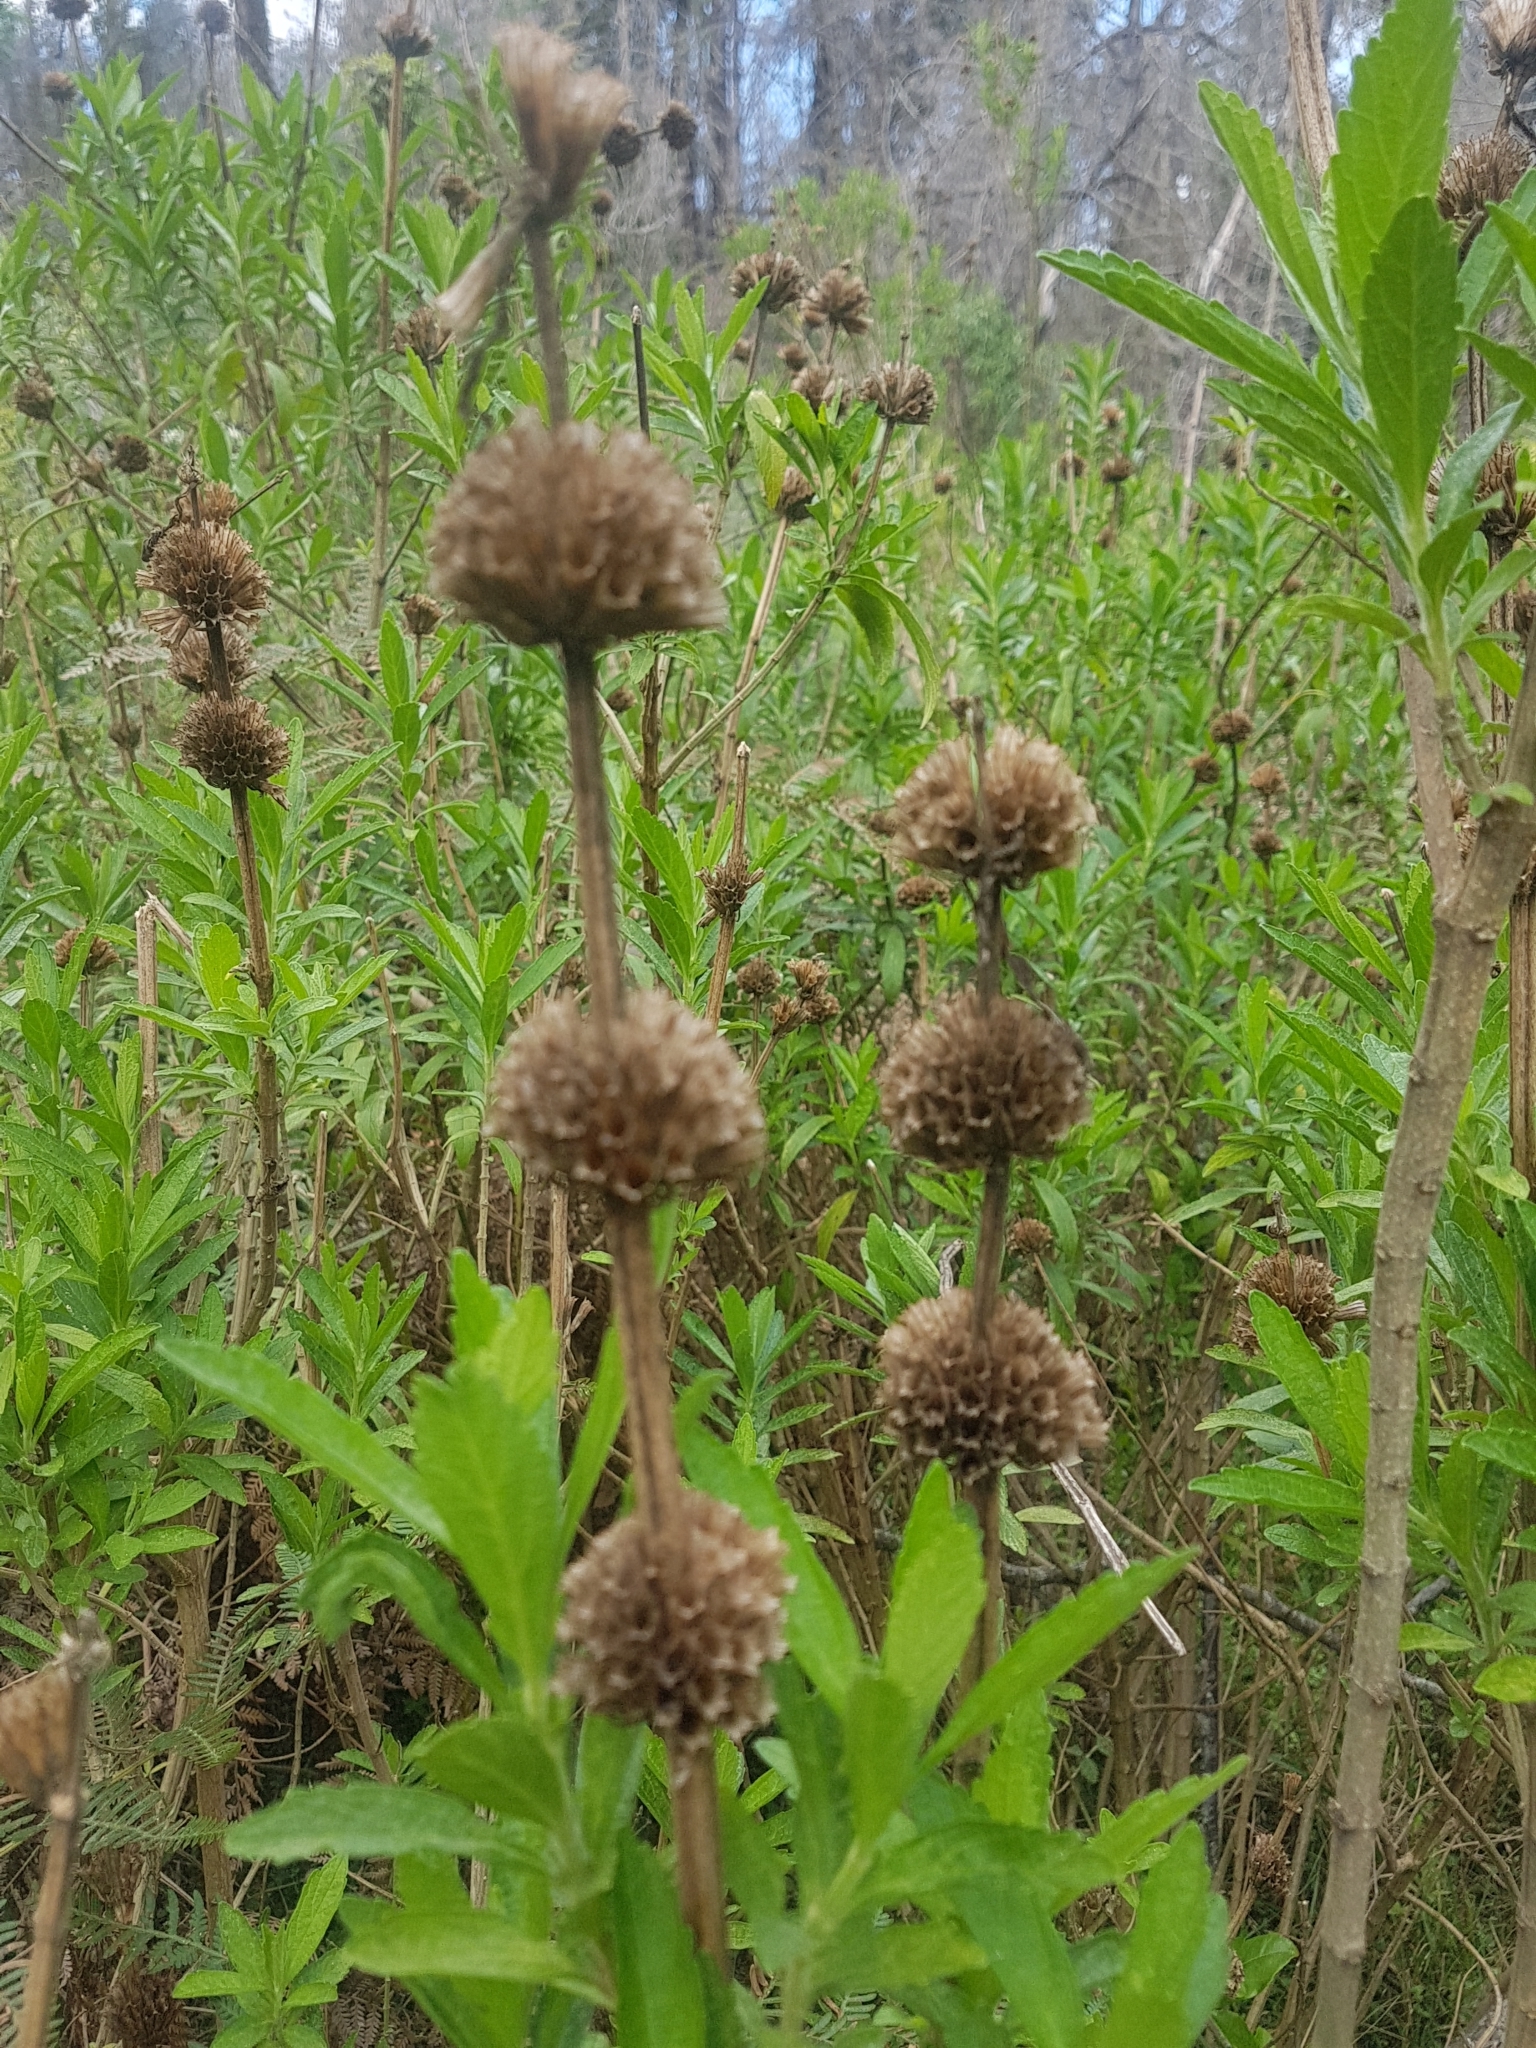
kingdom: Plantae
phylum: Tracheophyta
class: Magnoliopsida
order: Lamiales
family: Lamiaceae
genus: Leonotis
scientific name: Leonotis leonurus
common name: Lion's ear
